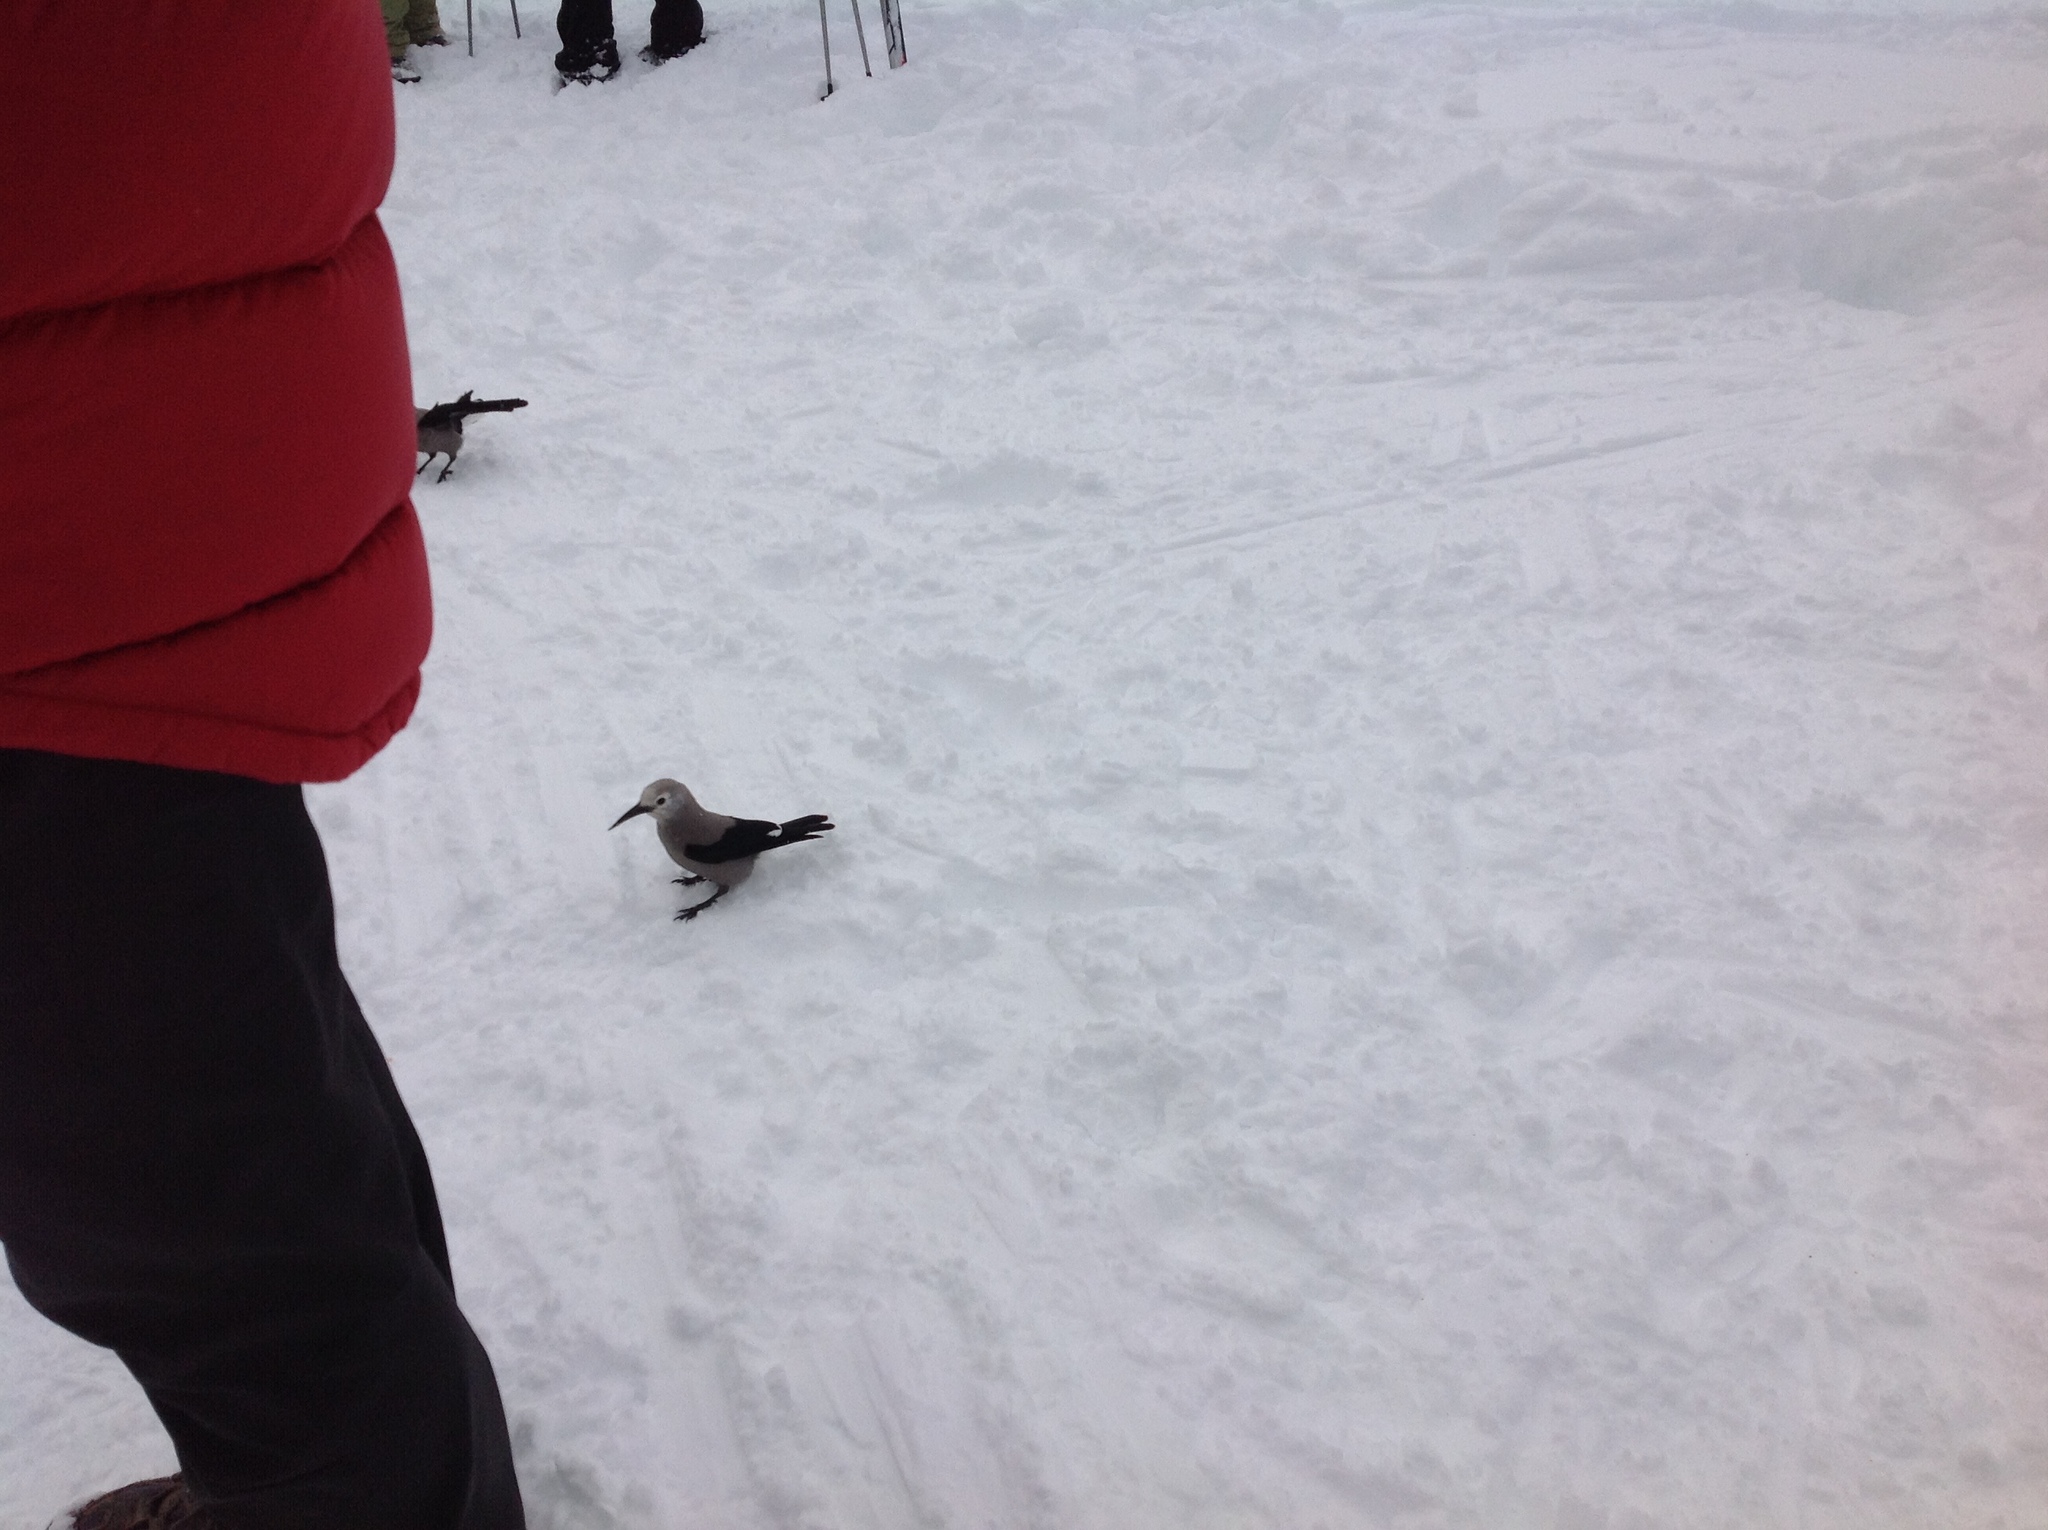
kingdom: Animalia
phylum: Chordata
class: Aves
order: Passeriformes
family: Corvidae
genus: Nucifraga
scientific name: Nucifraga columbiana
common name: Clark's nutcracker
